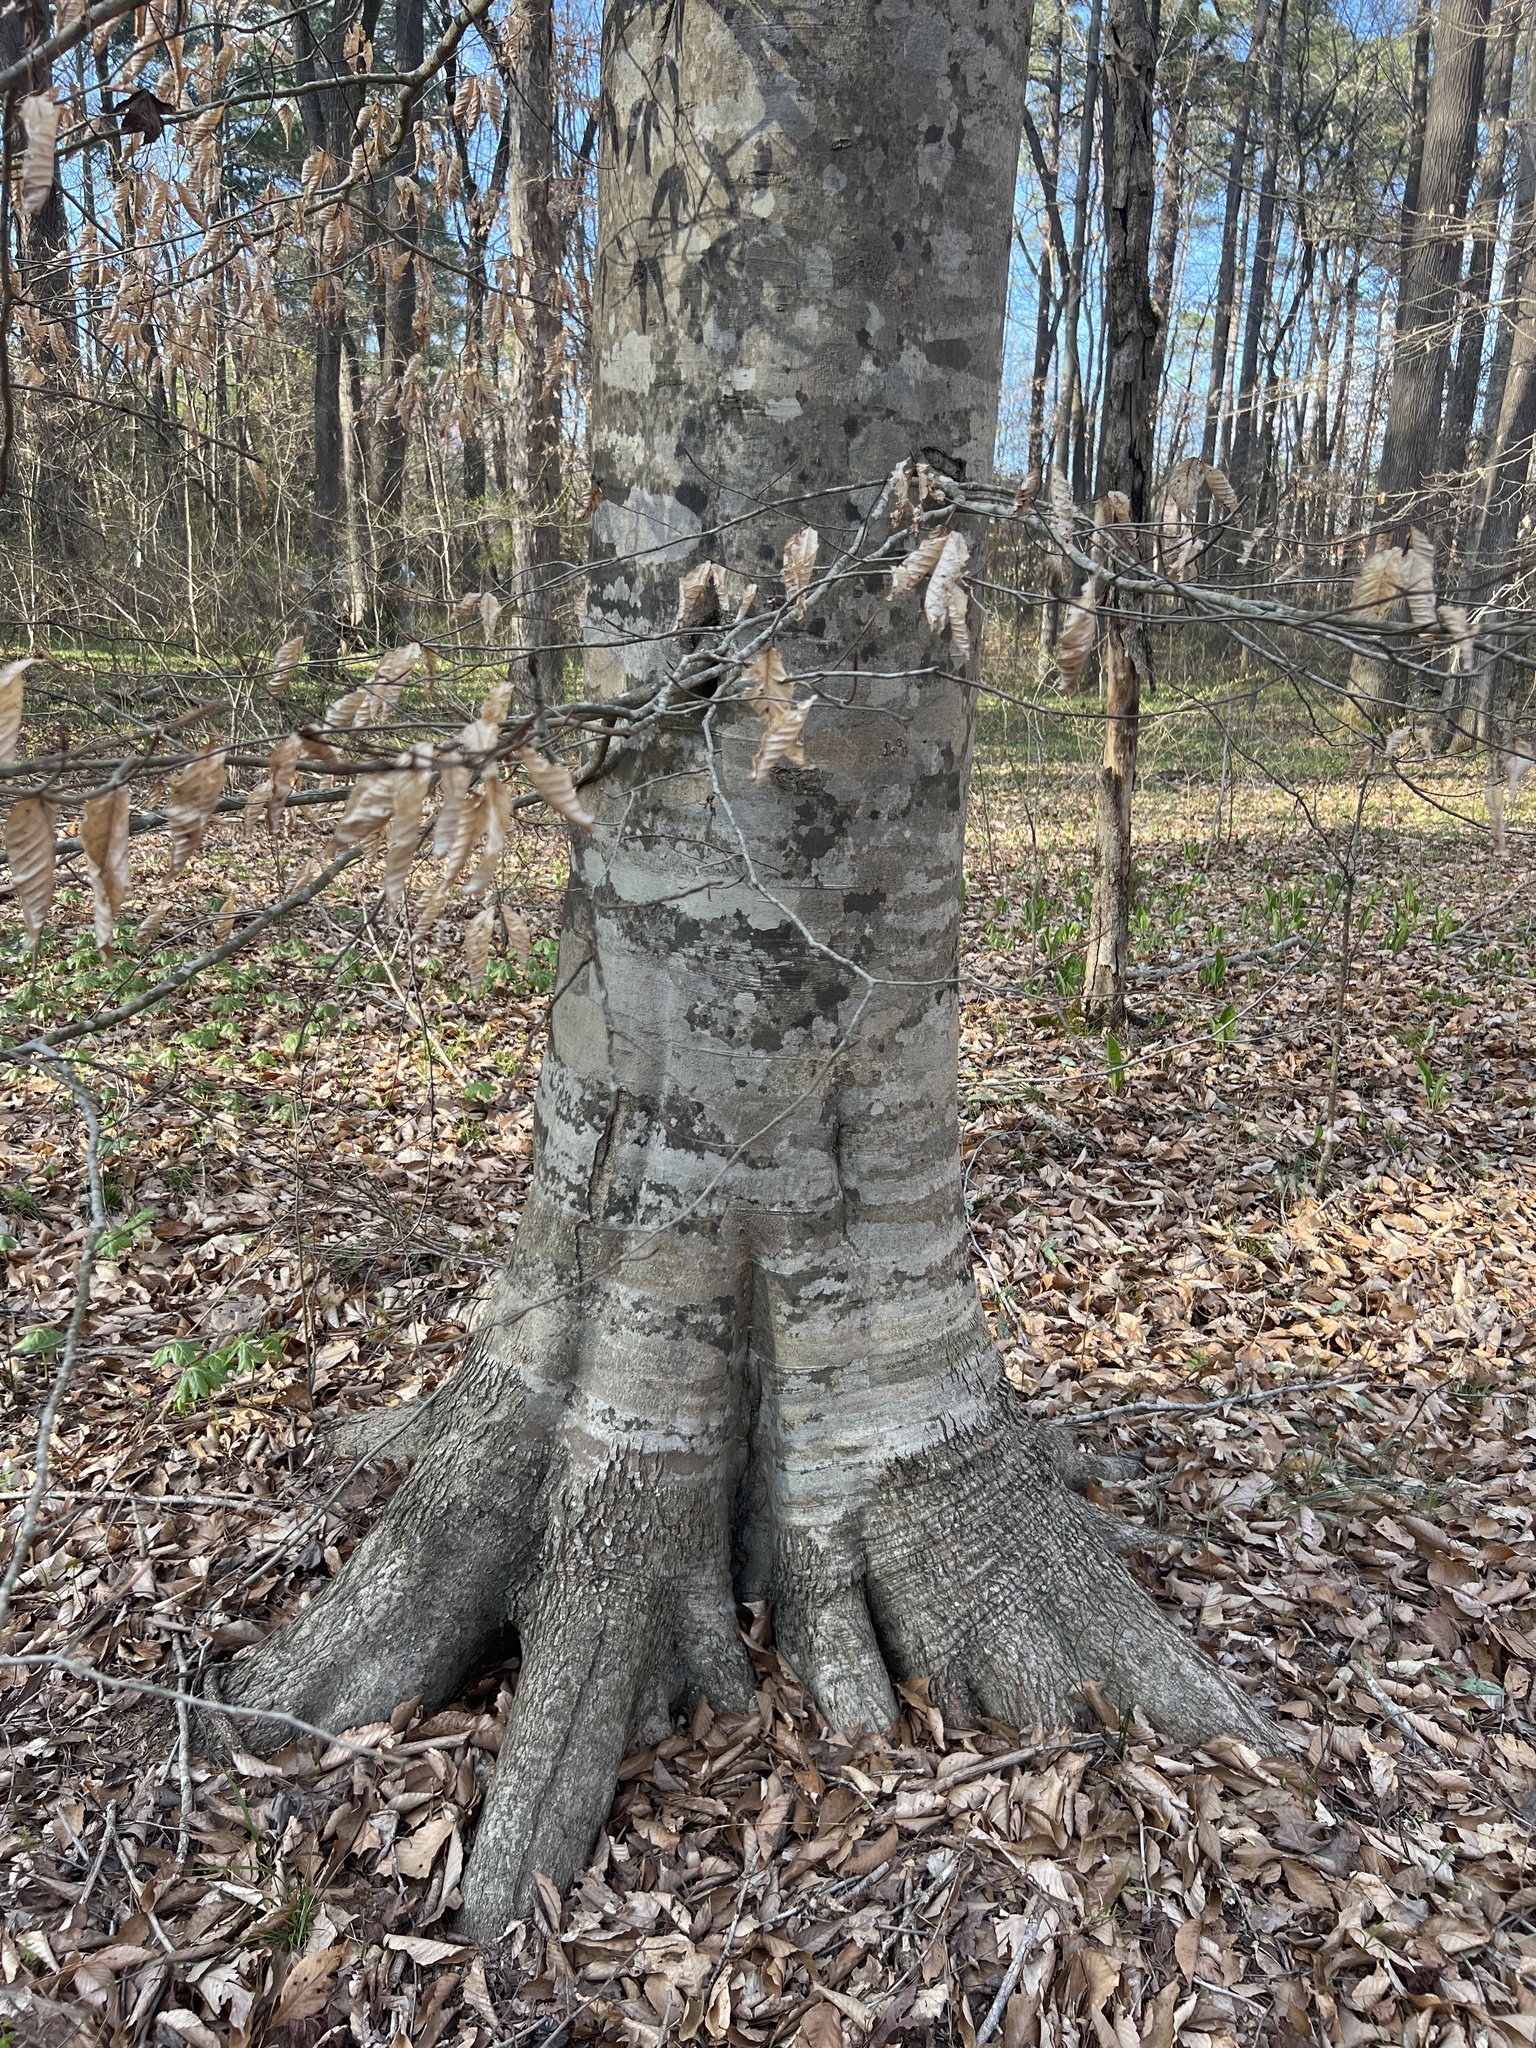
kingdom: Plantae
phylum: Tracheophyta
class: Magnoliopsida
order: Fagales
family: Fagaceae
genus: Fagus
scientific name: Fagus grandifolia
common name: American beech
